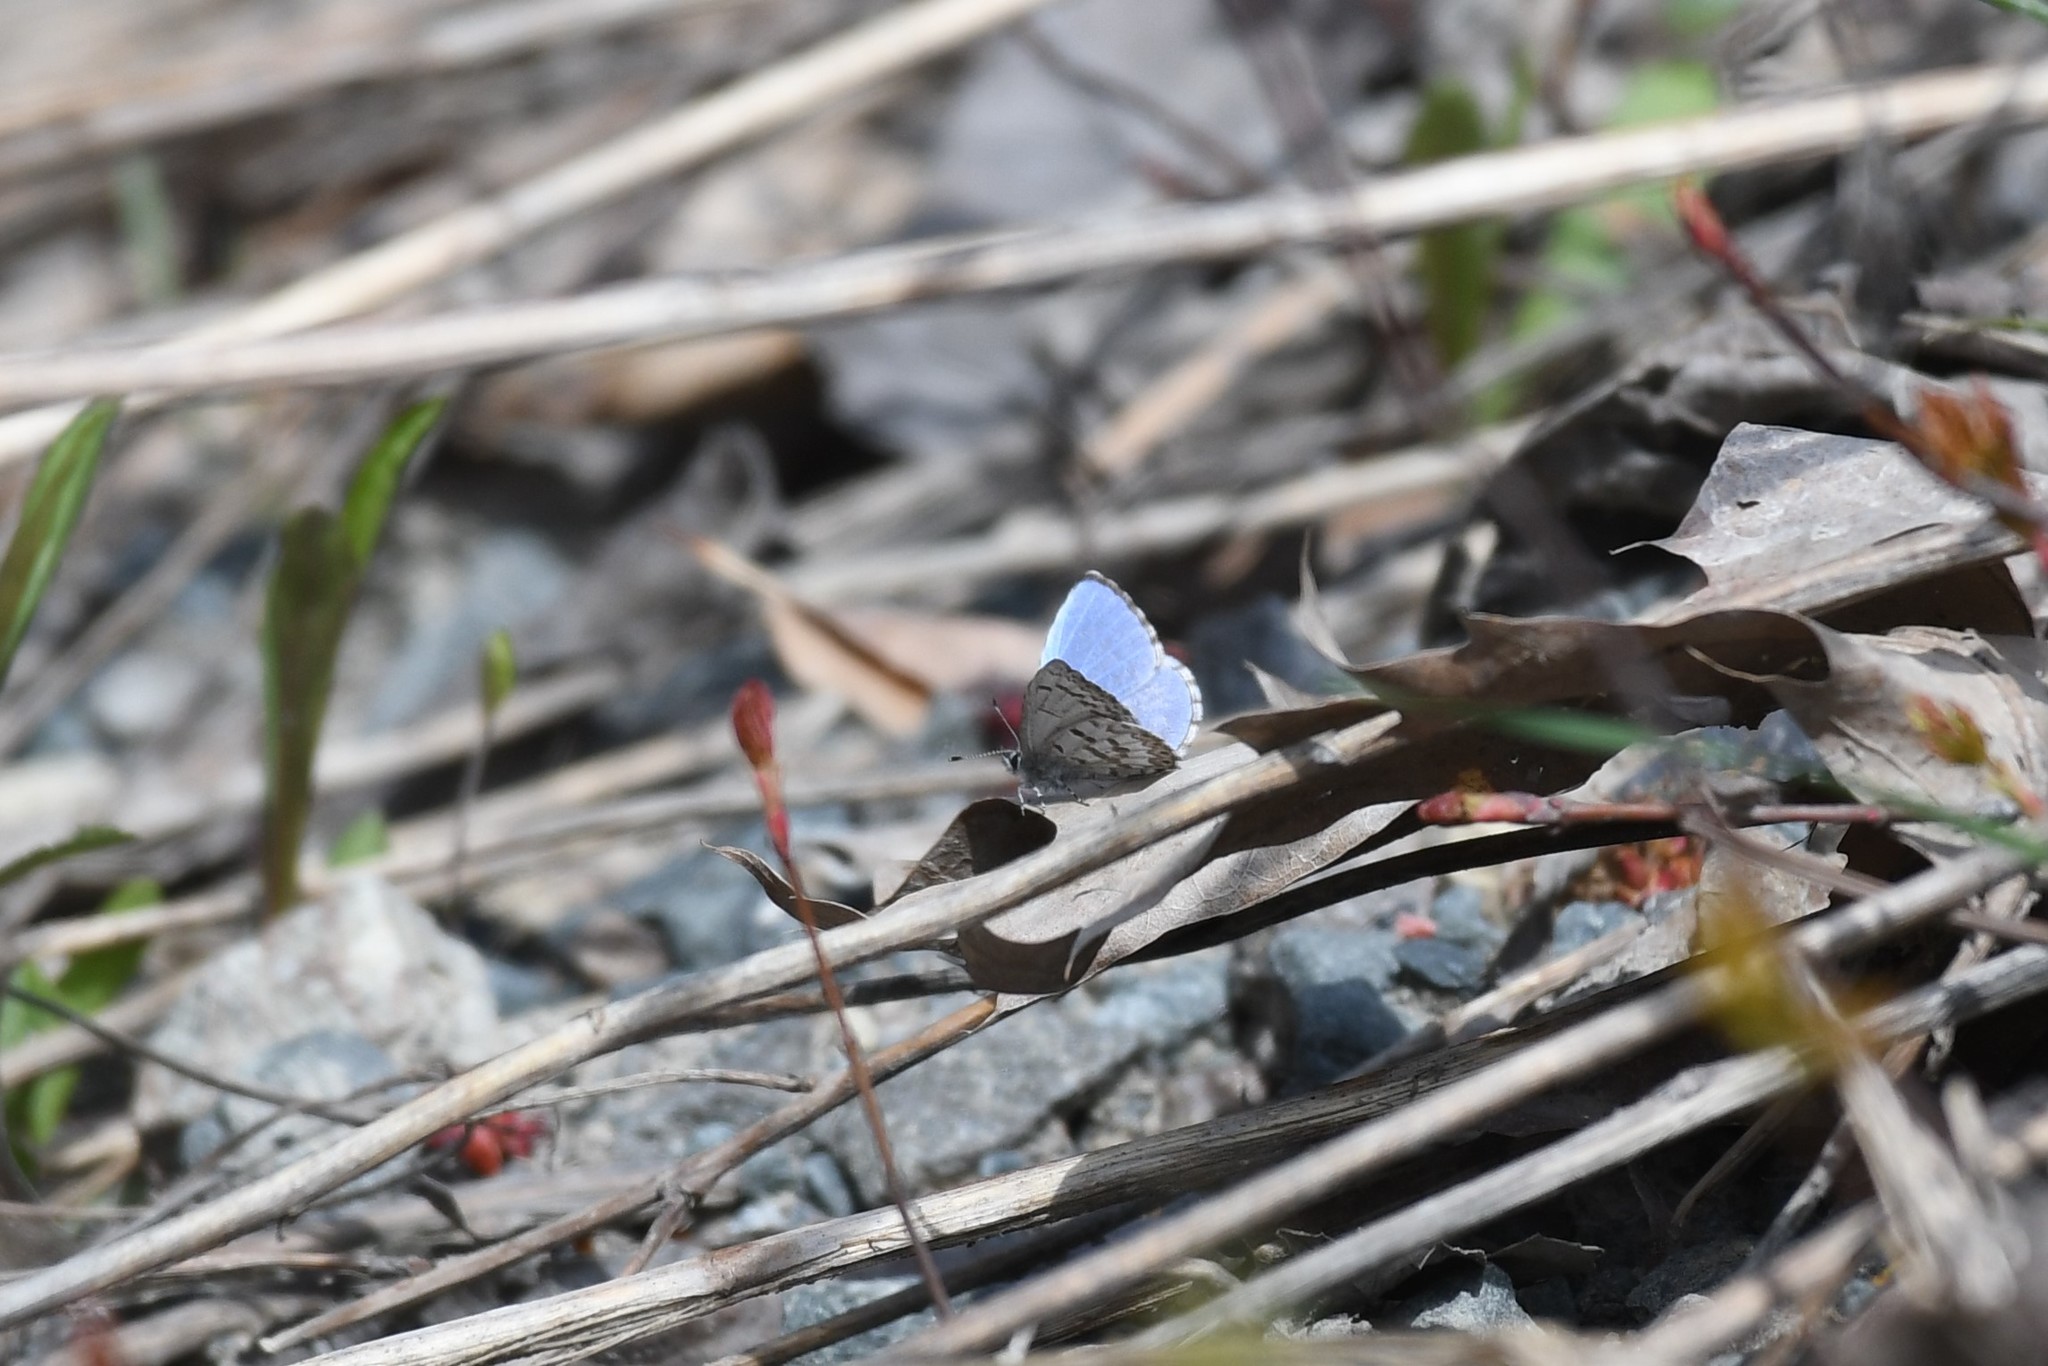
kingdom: Animalia
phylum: Arthropoda
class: Insecta
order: Lepidoptera
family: Lycaenidae
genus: Celastrina
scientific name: Celastrina lucia
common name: Lucia azure
